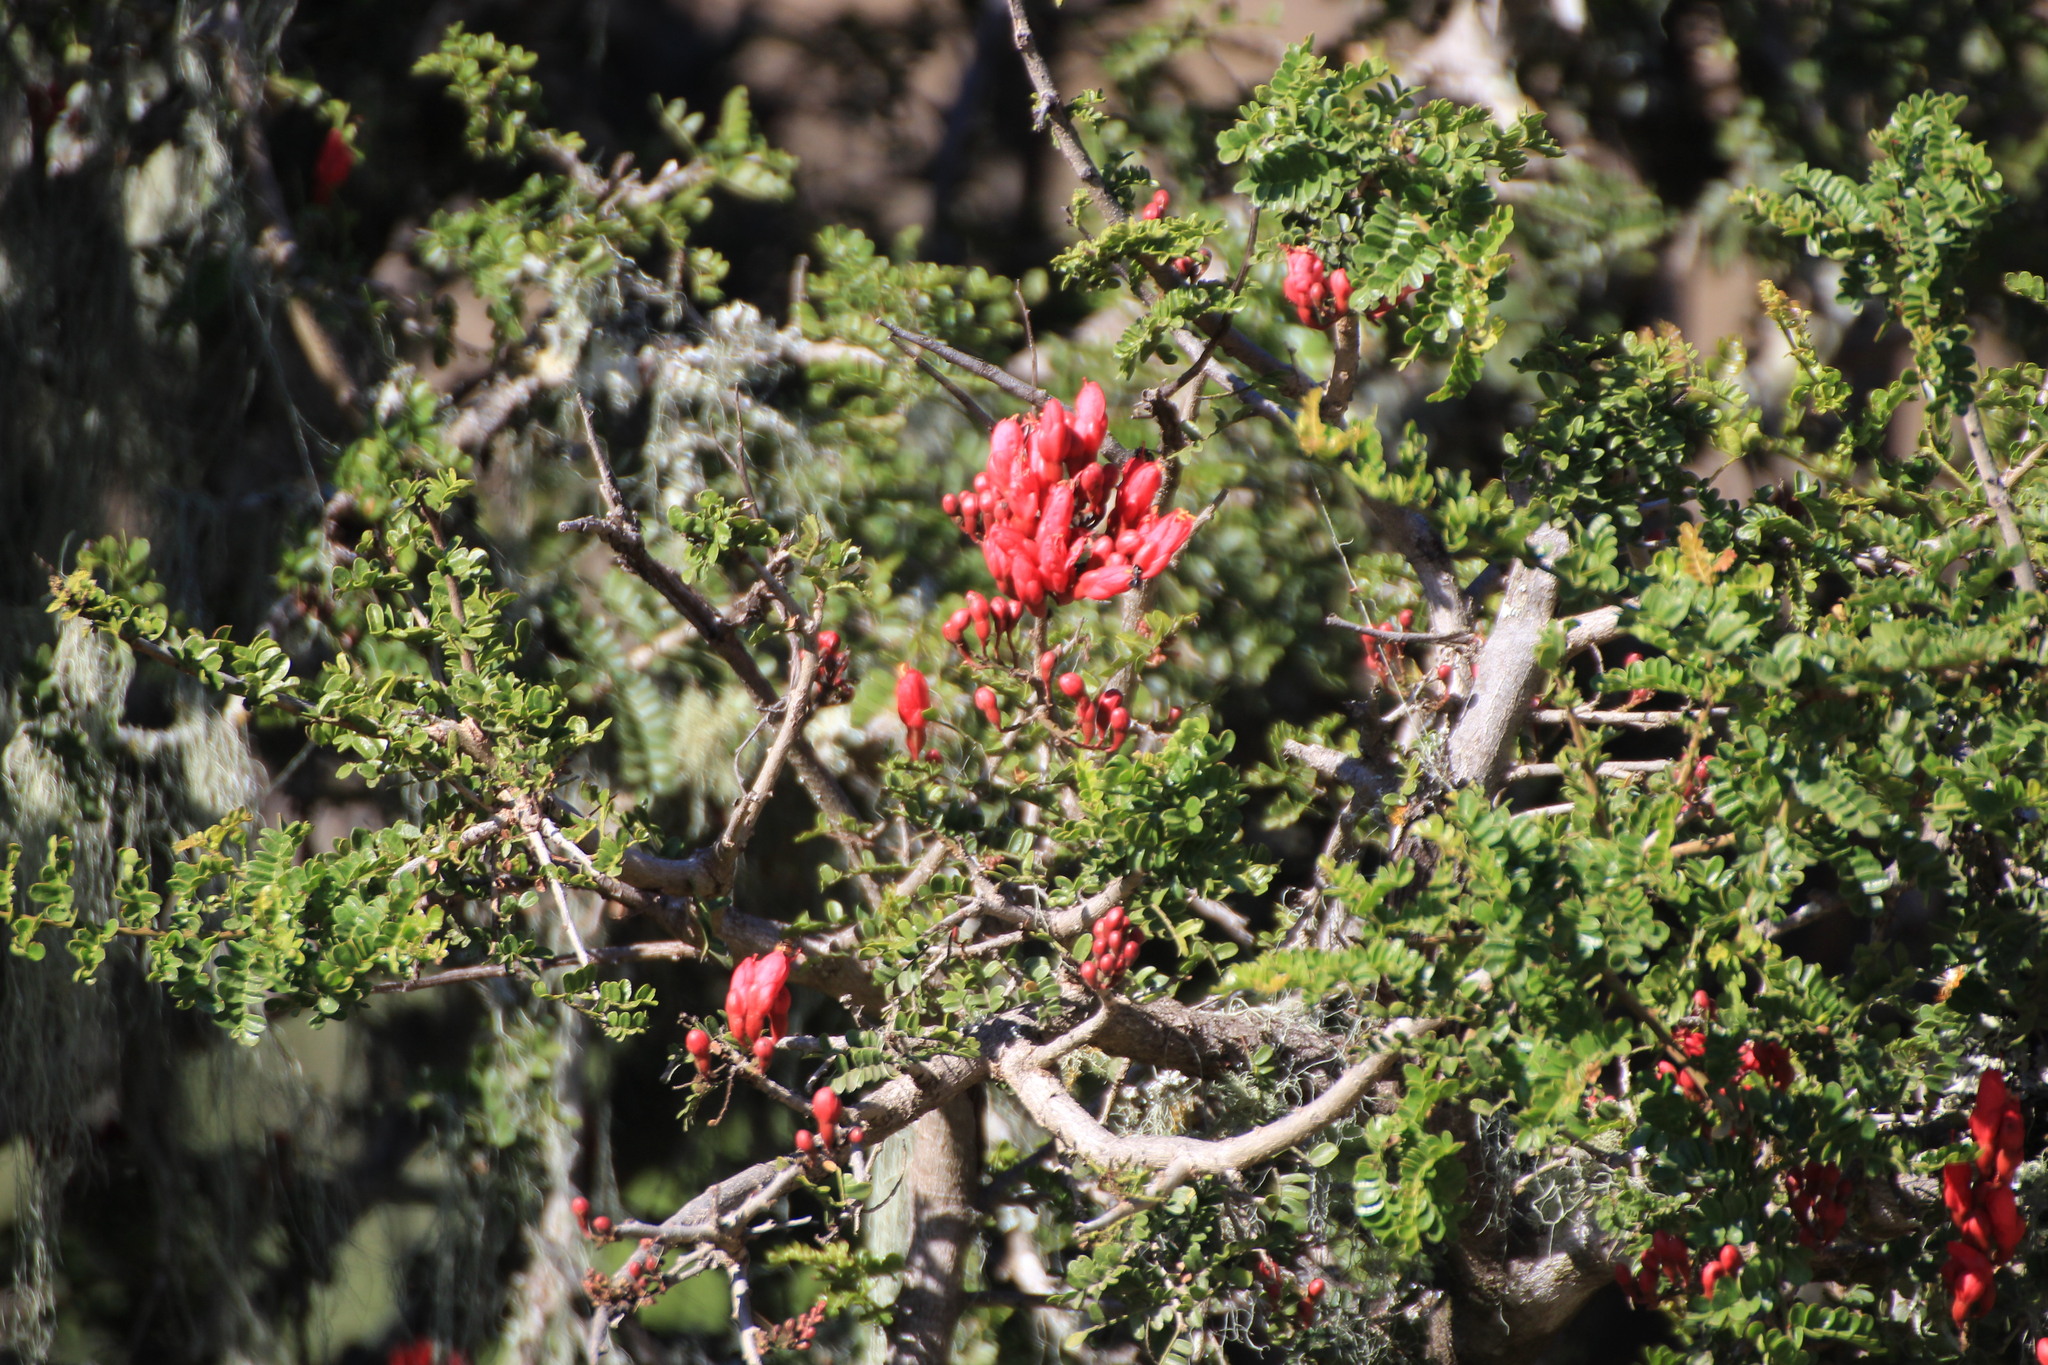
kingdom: Plantae
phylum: Tracheophyta
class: Magnoliopsida
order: Fabales
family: Fabaceae
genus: Schotia
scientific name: Schotia afra
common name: Hottentot's bean
